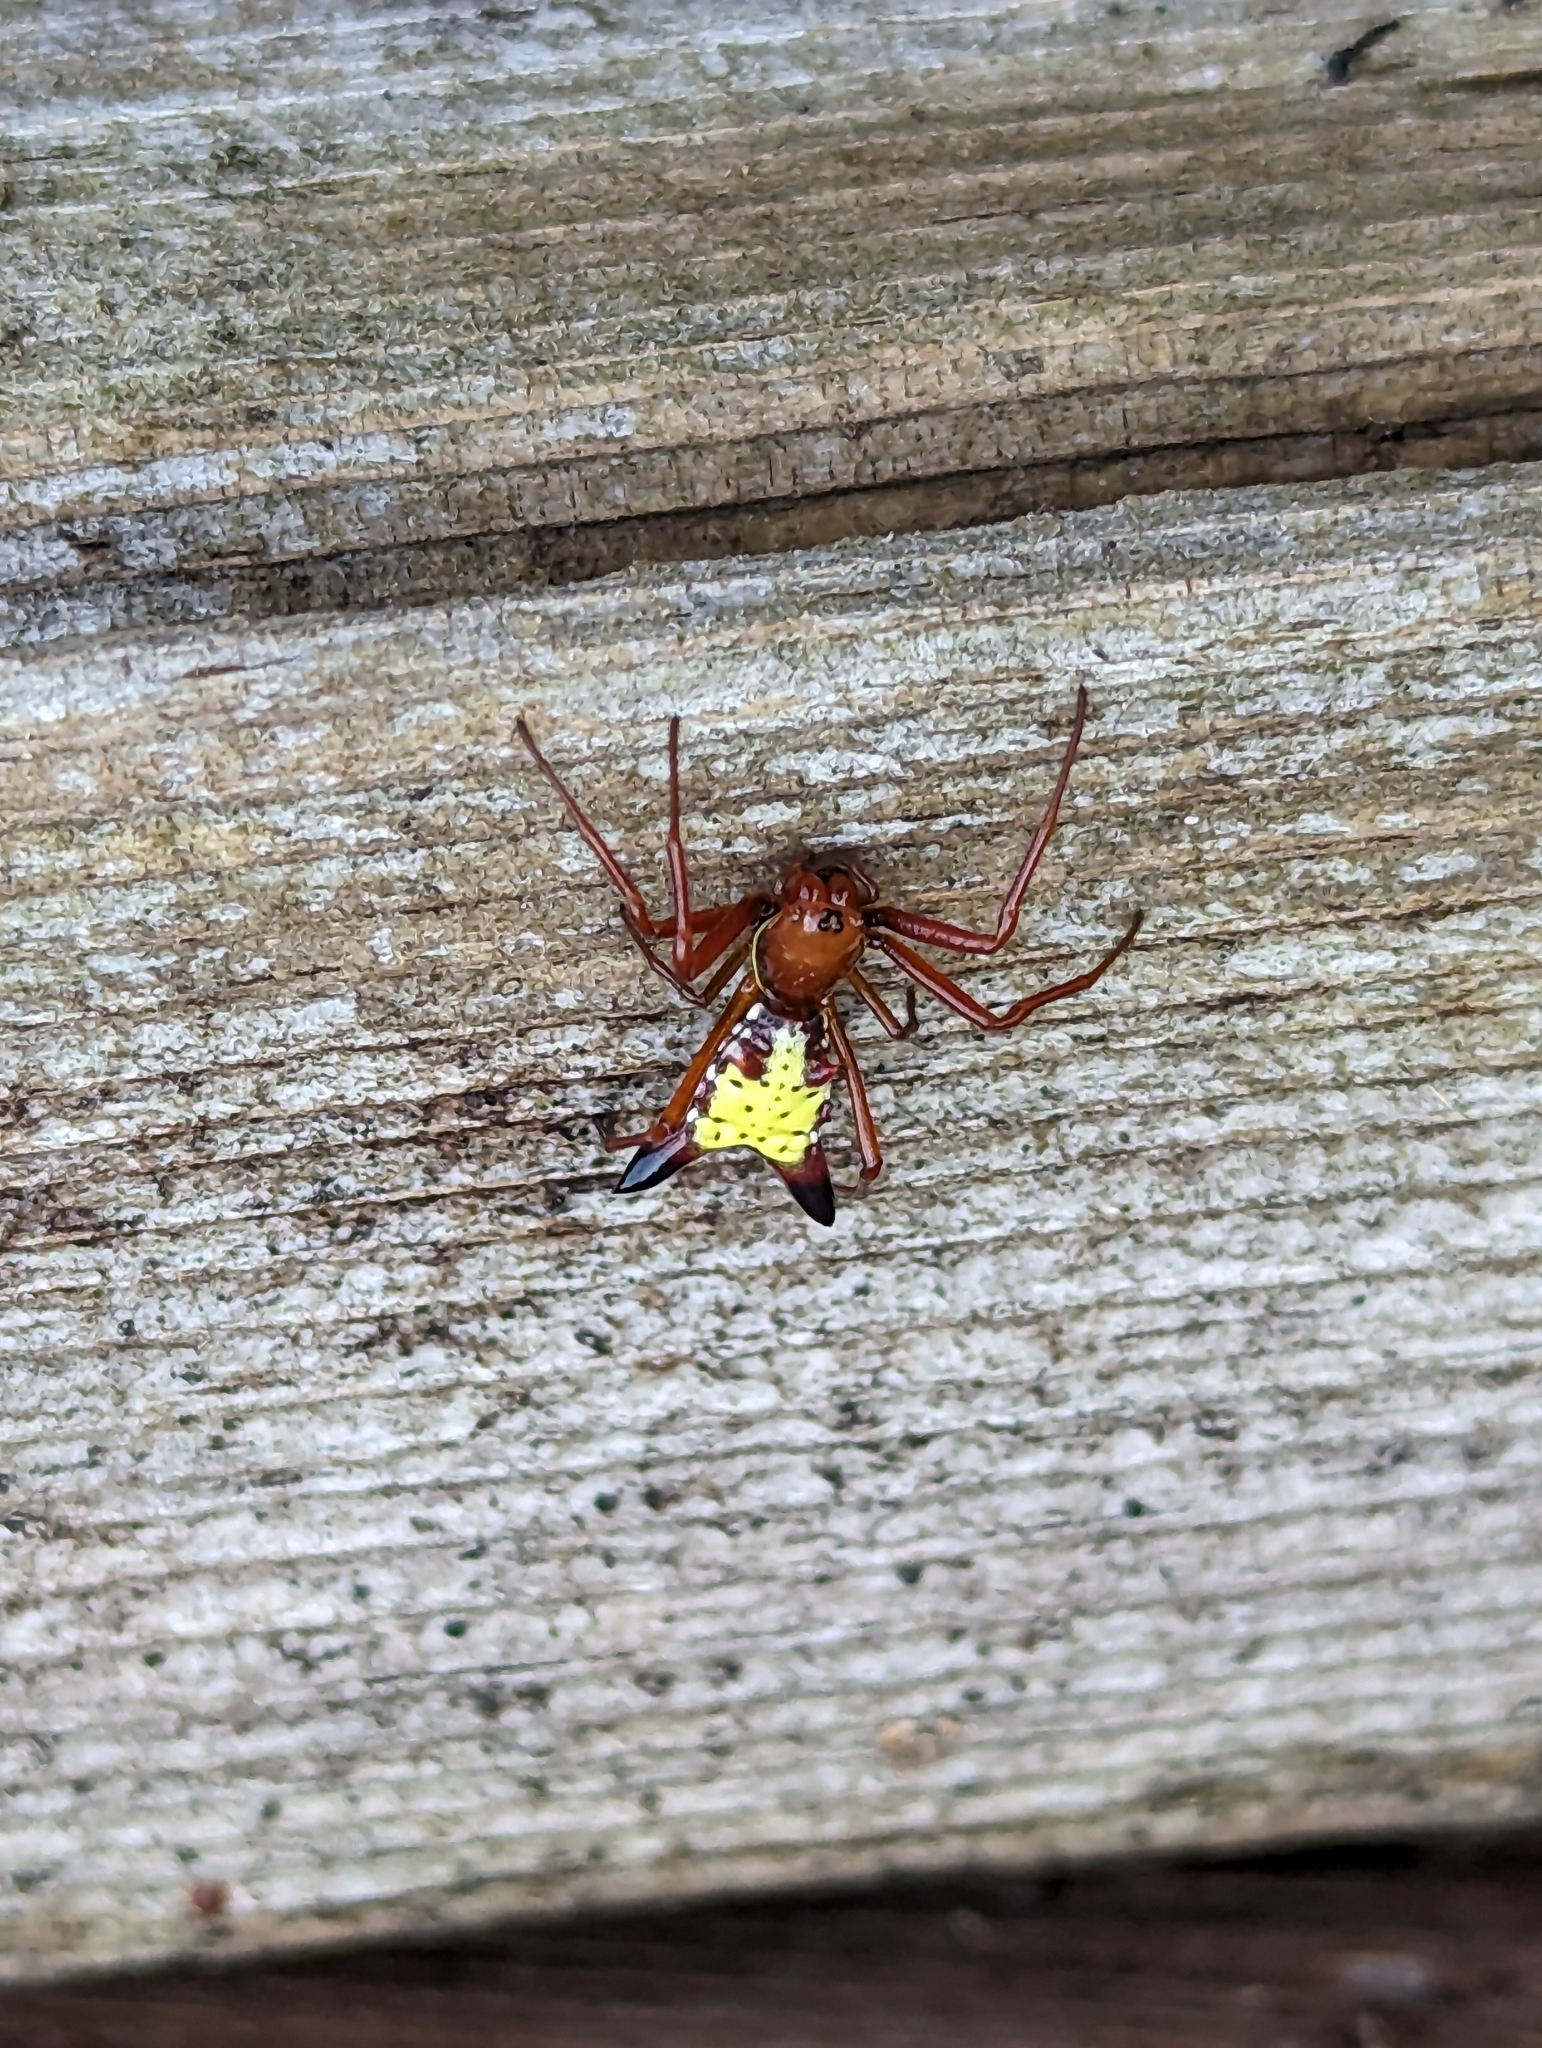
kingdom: Animalia
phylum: Arthropoda
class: Arachnida
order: Araneae
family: Araneidae
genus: Micrathena
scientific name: Micrathena sagittata
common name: Orb weavers
